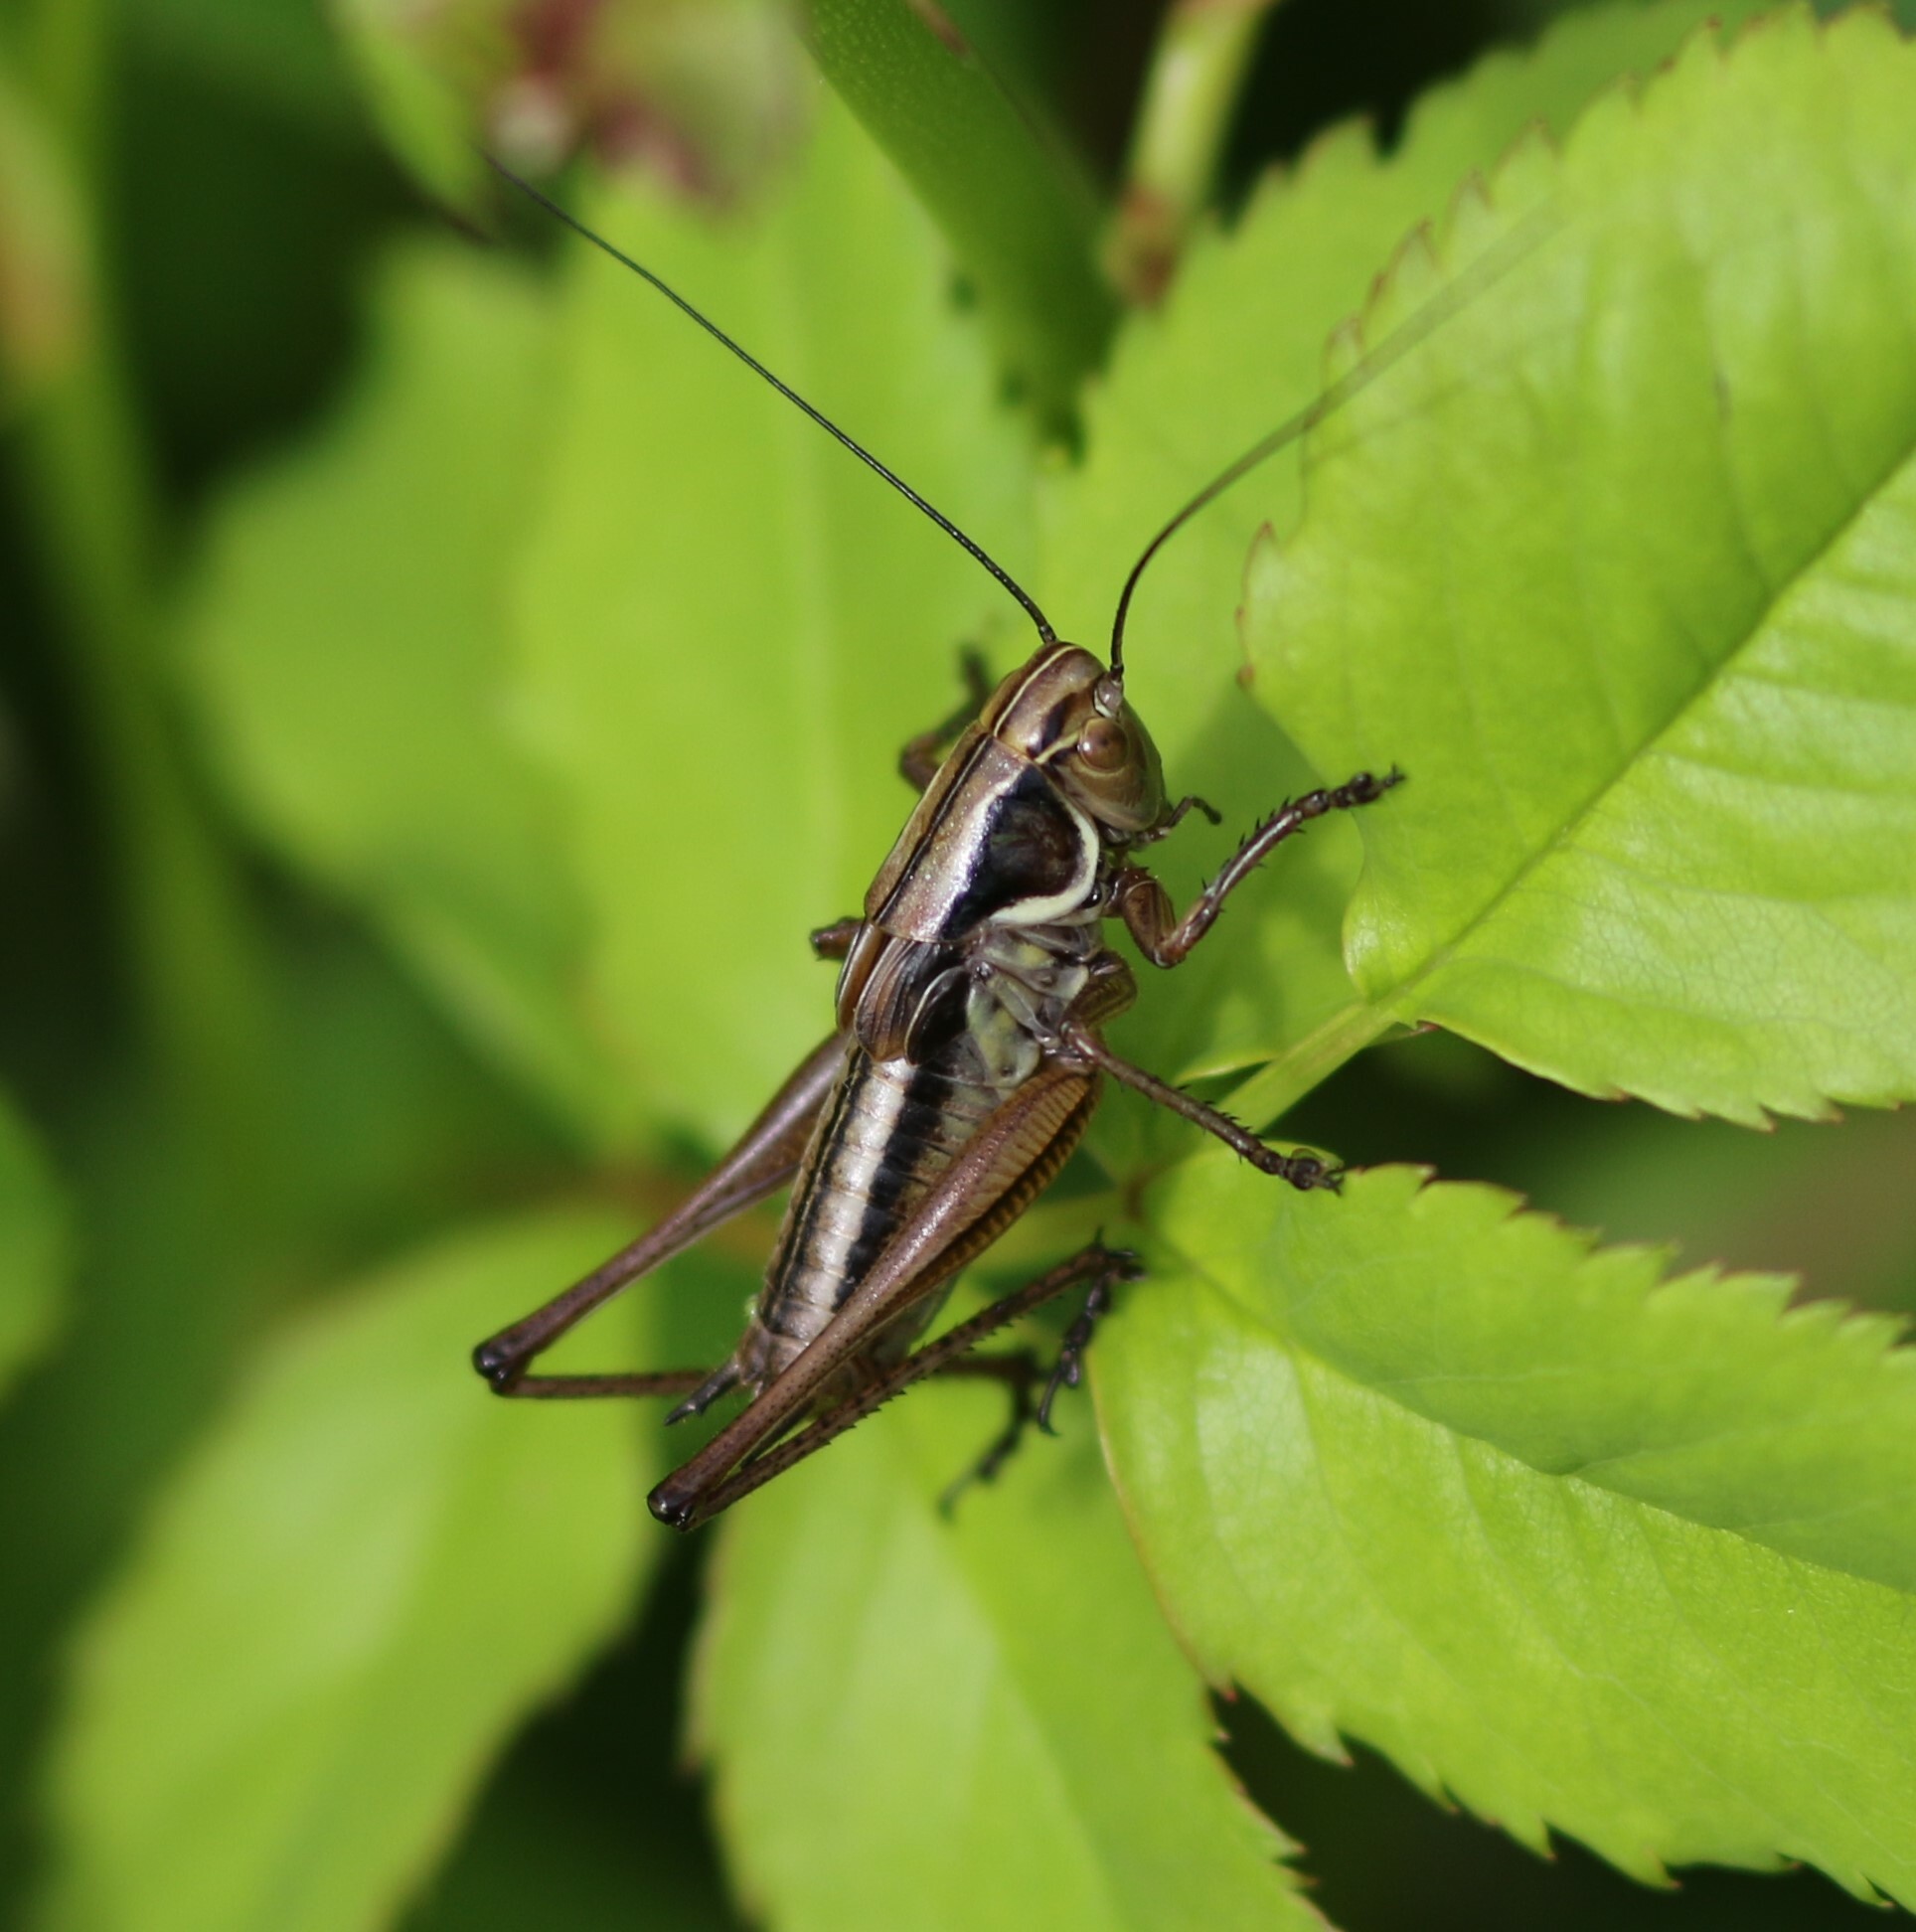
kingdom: Animalia
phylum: Arthropoda
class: Insecta
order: Orthoptera
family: Tettigoniidae
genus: Roeseliana
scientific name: Roeseliana roeselii
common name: Roesel's bush cricket
